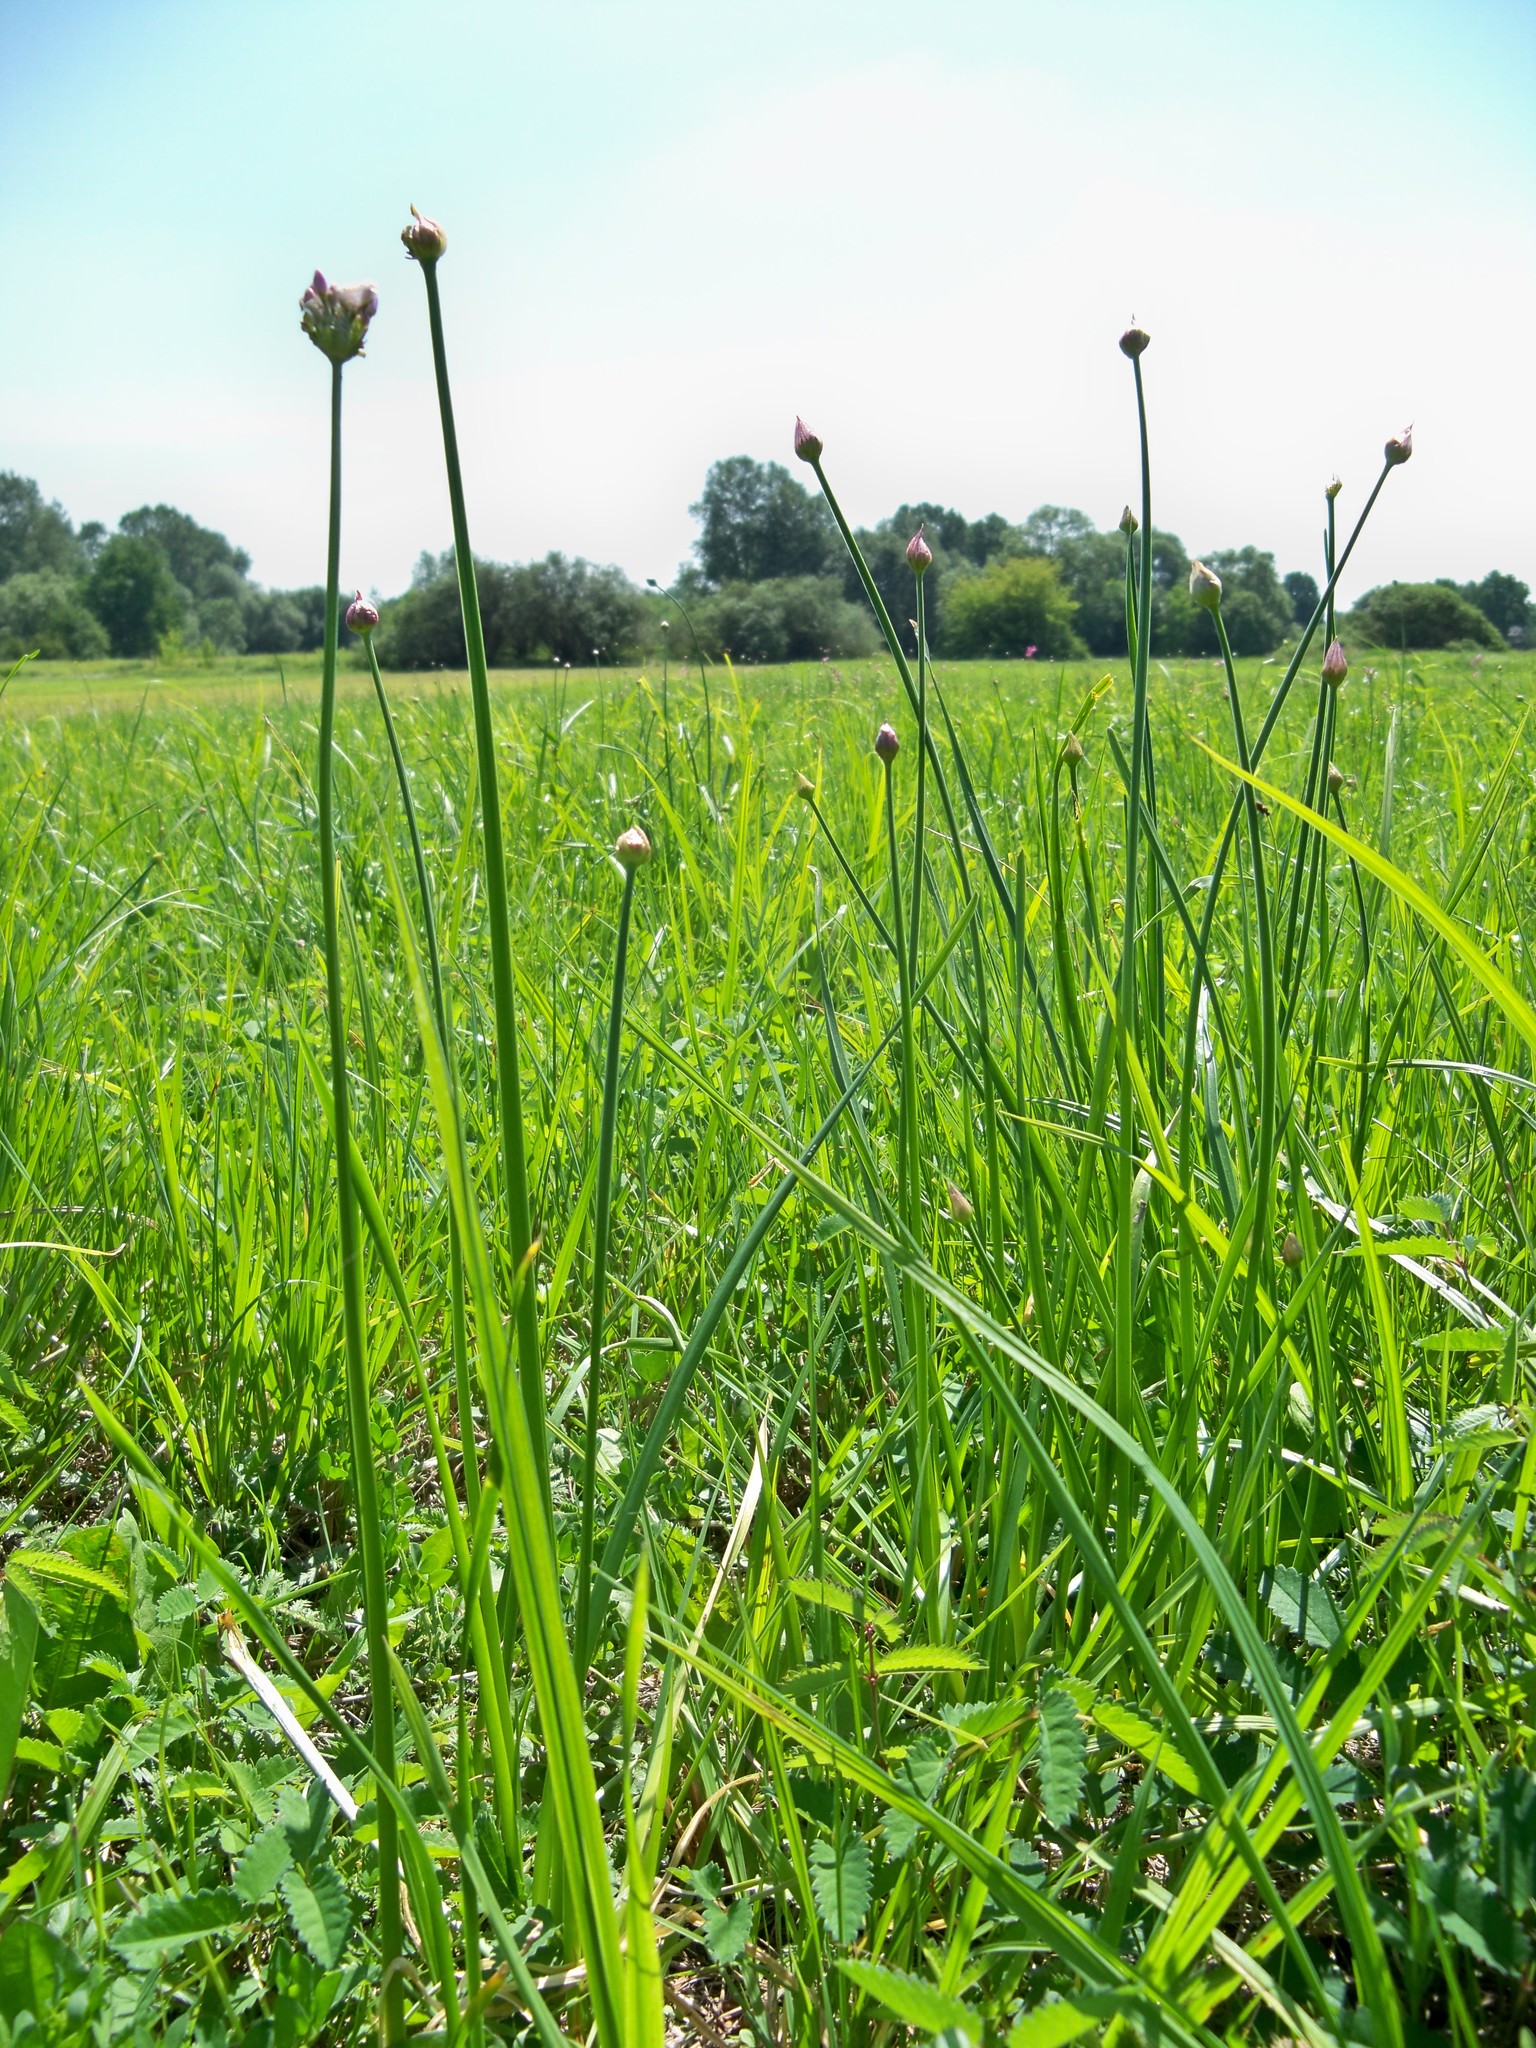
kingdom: Plantae
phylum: Tracheophyta
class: Liliopsida
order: Asparagales
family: Amaryllidaceae
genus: Allium
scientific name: Allium angulosum
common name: Mouse garlic
